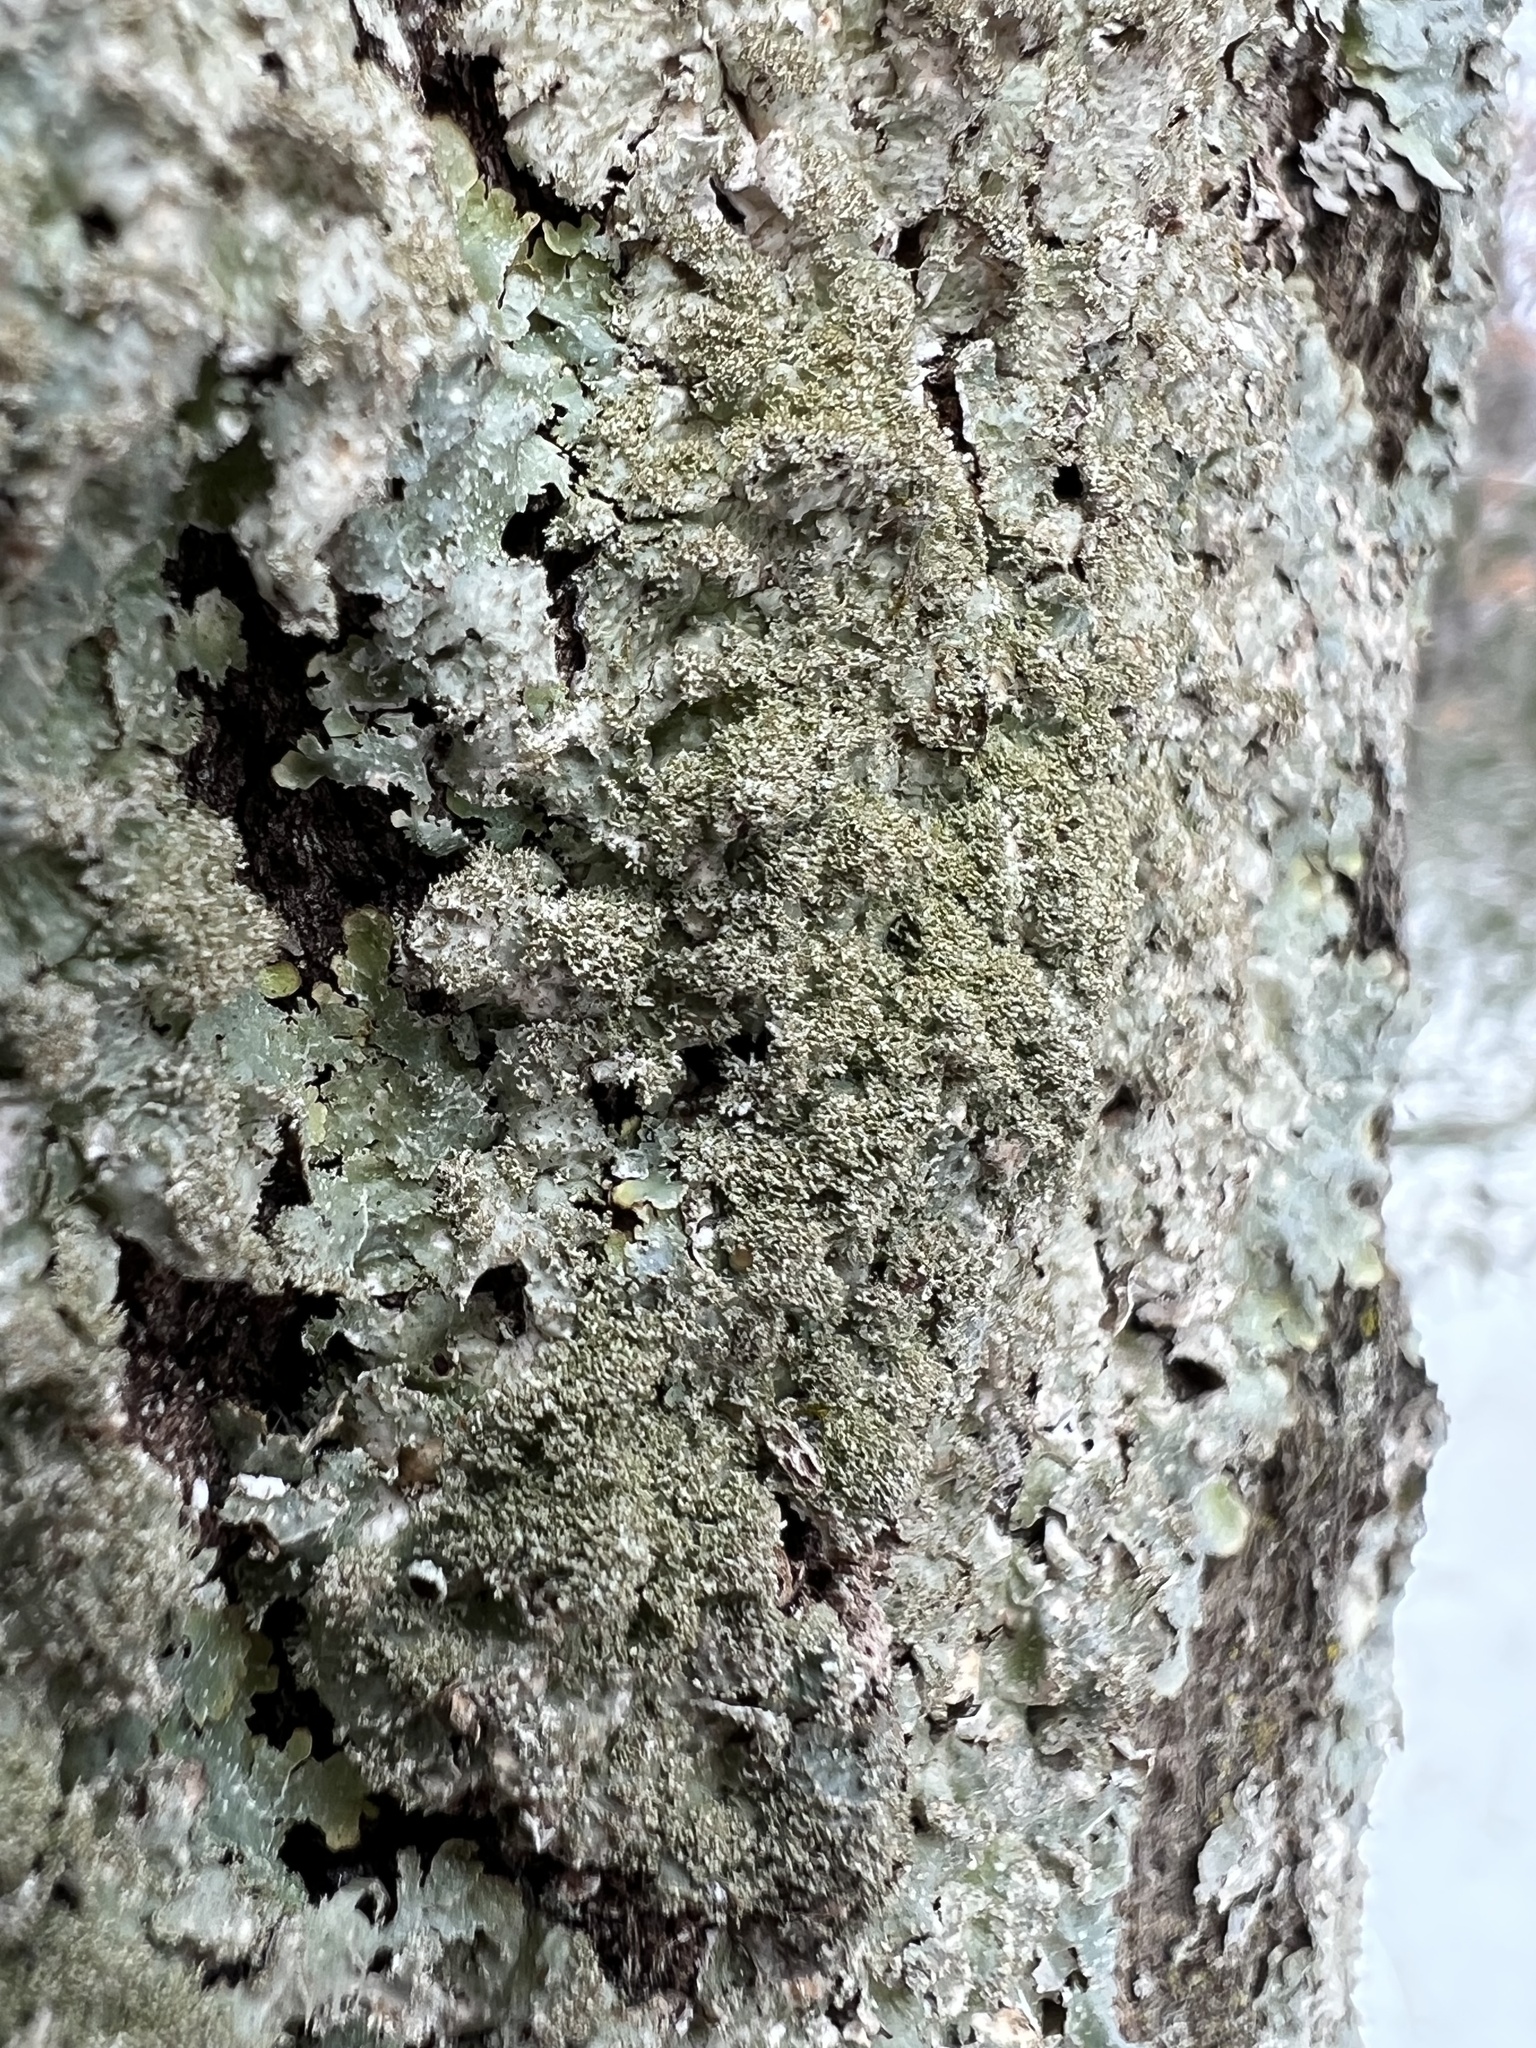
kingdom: Fungi
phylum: Ascomycota
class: Lecanoromycetes
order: Lecanorales
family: Parmeliaceae
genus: Punctelia
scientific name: Punctelia rudecta
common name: Rough speckled shield lichen
